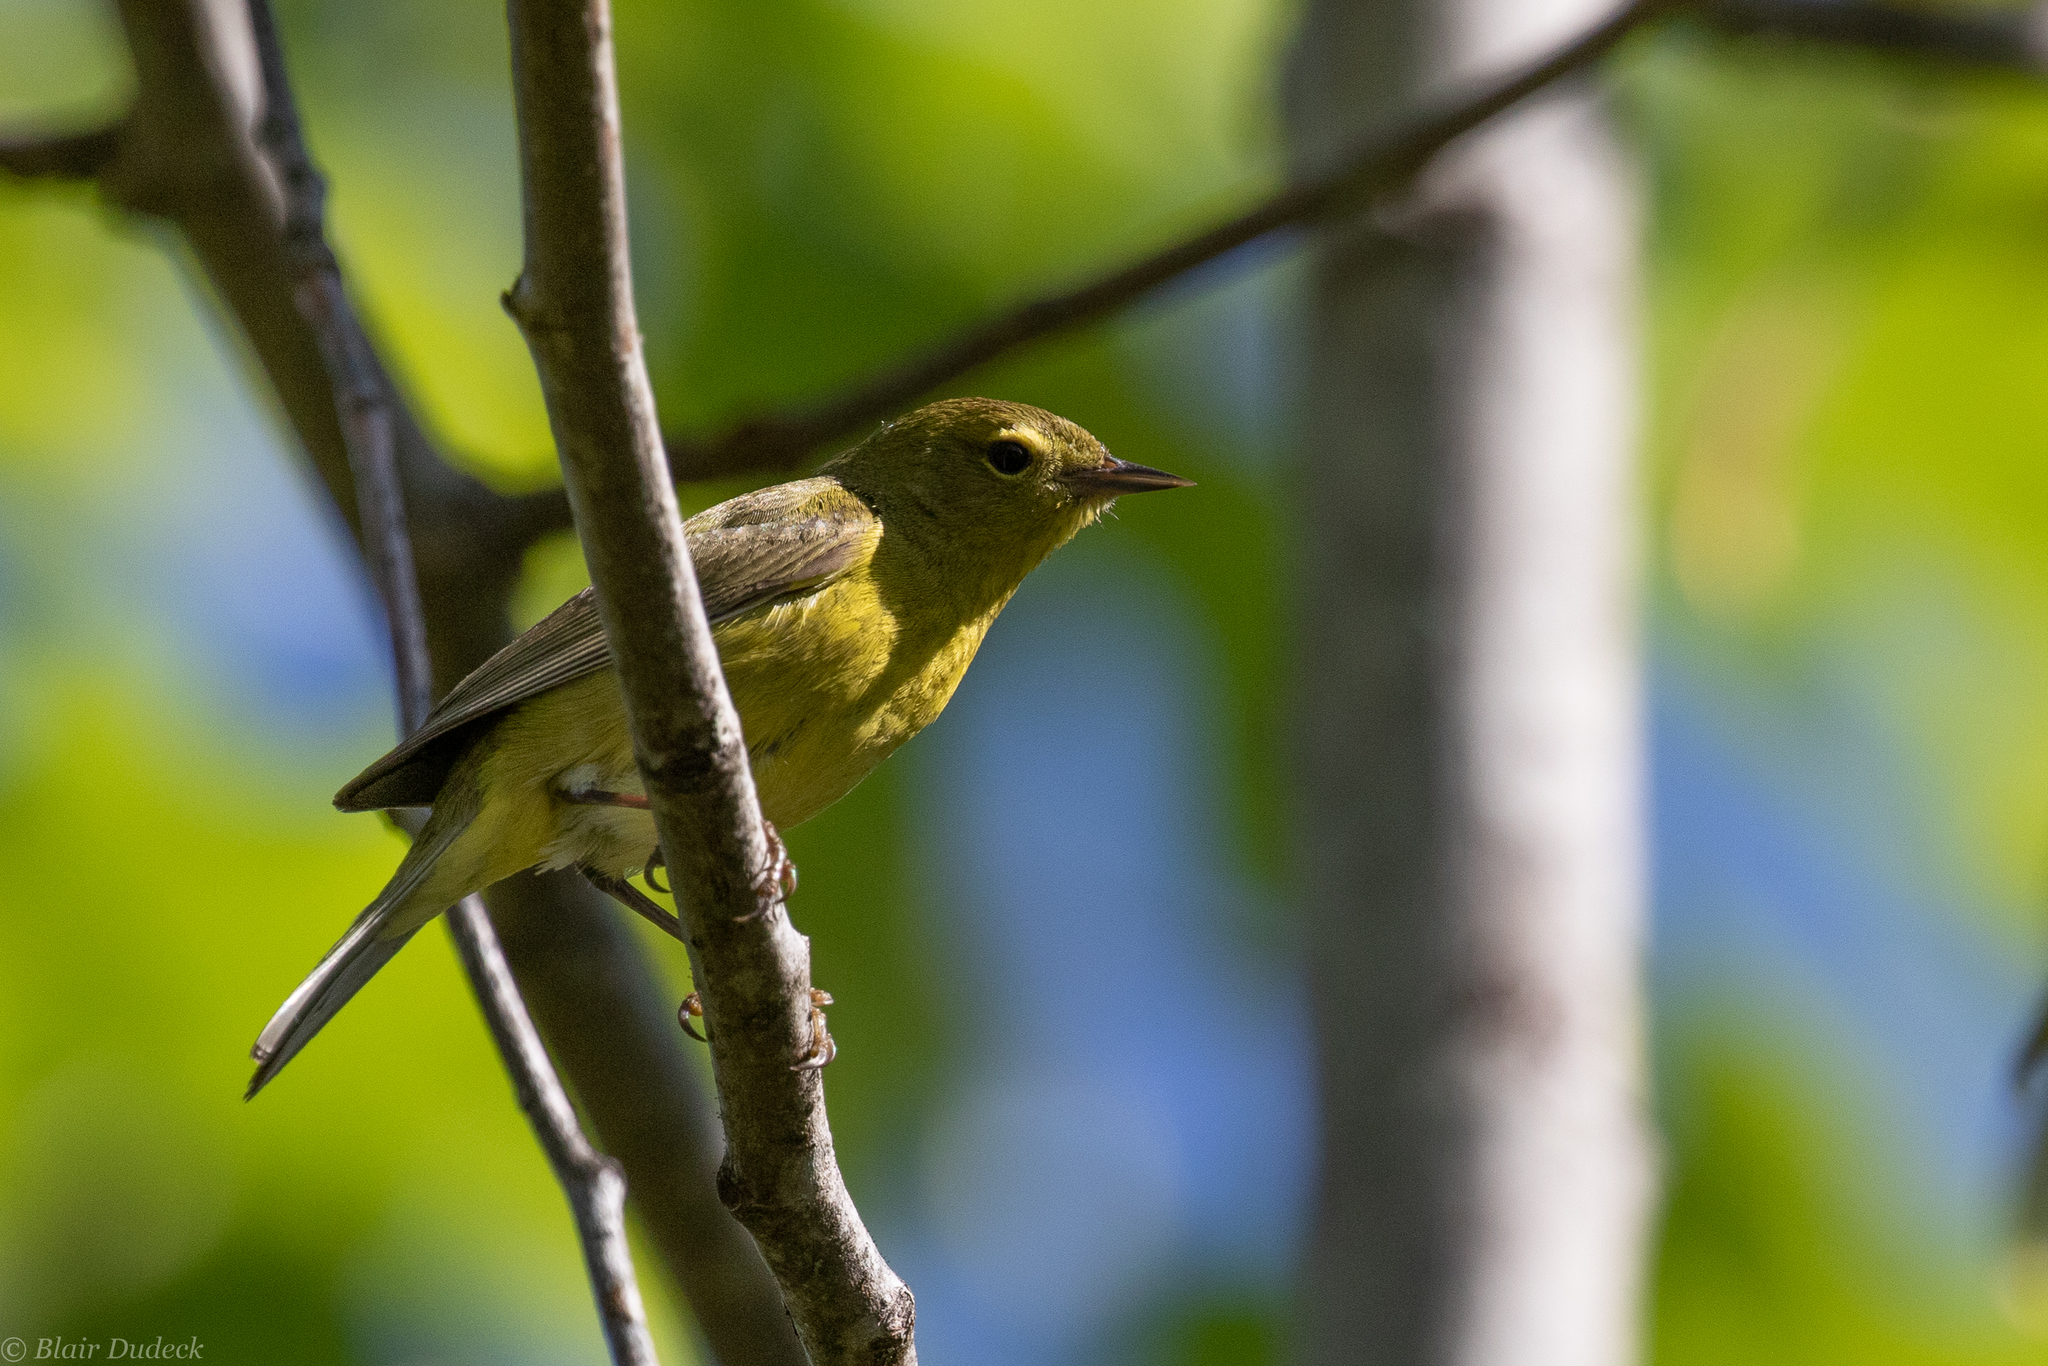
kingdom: Animalia
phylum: Chordata
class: Aves
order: Passeriformes
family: Parulidae
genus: Leiothlypis
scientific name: Leiothlypis celata
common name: Orange-crowned warbler
